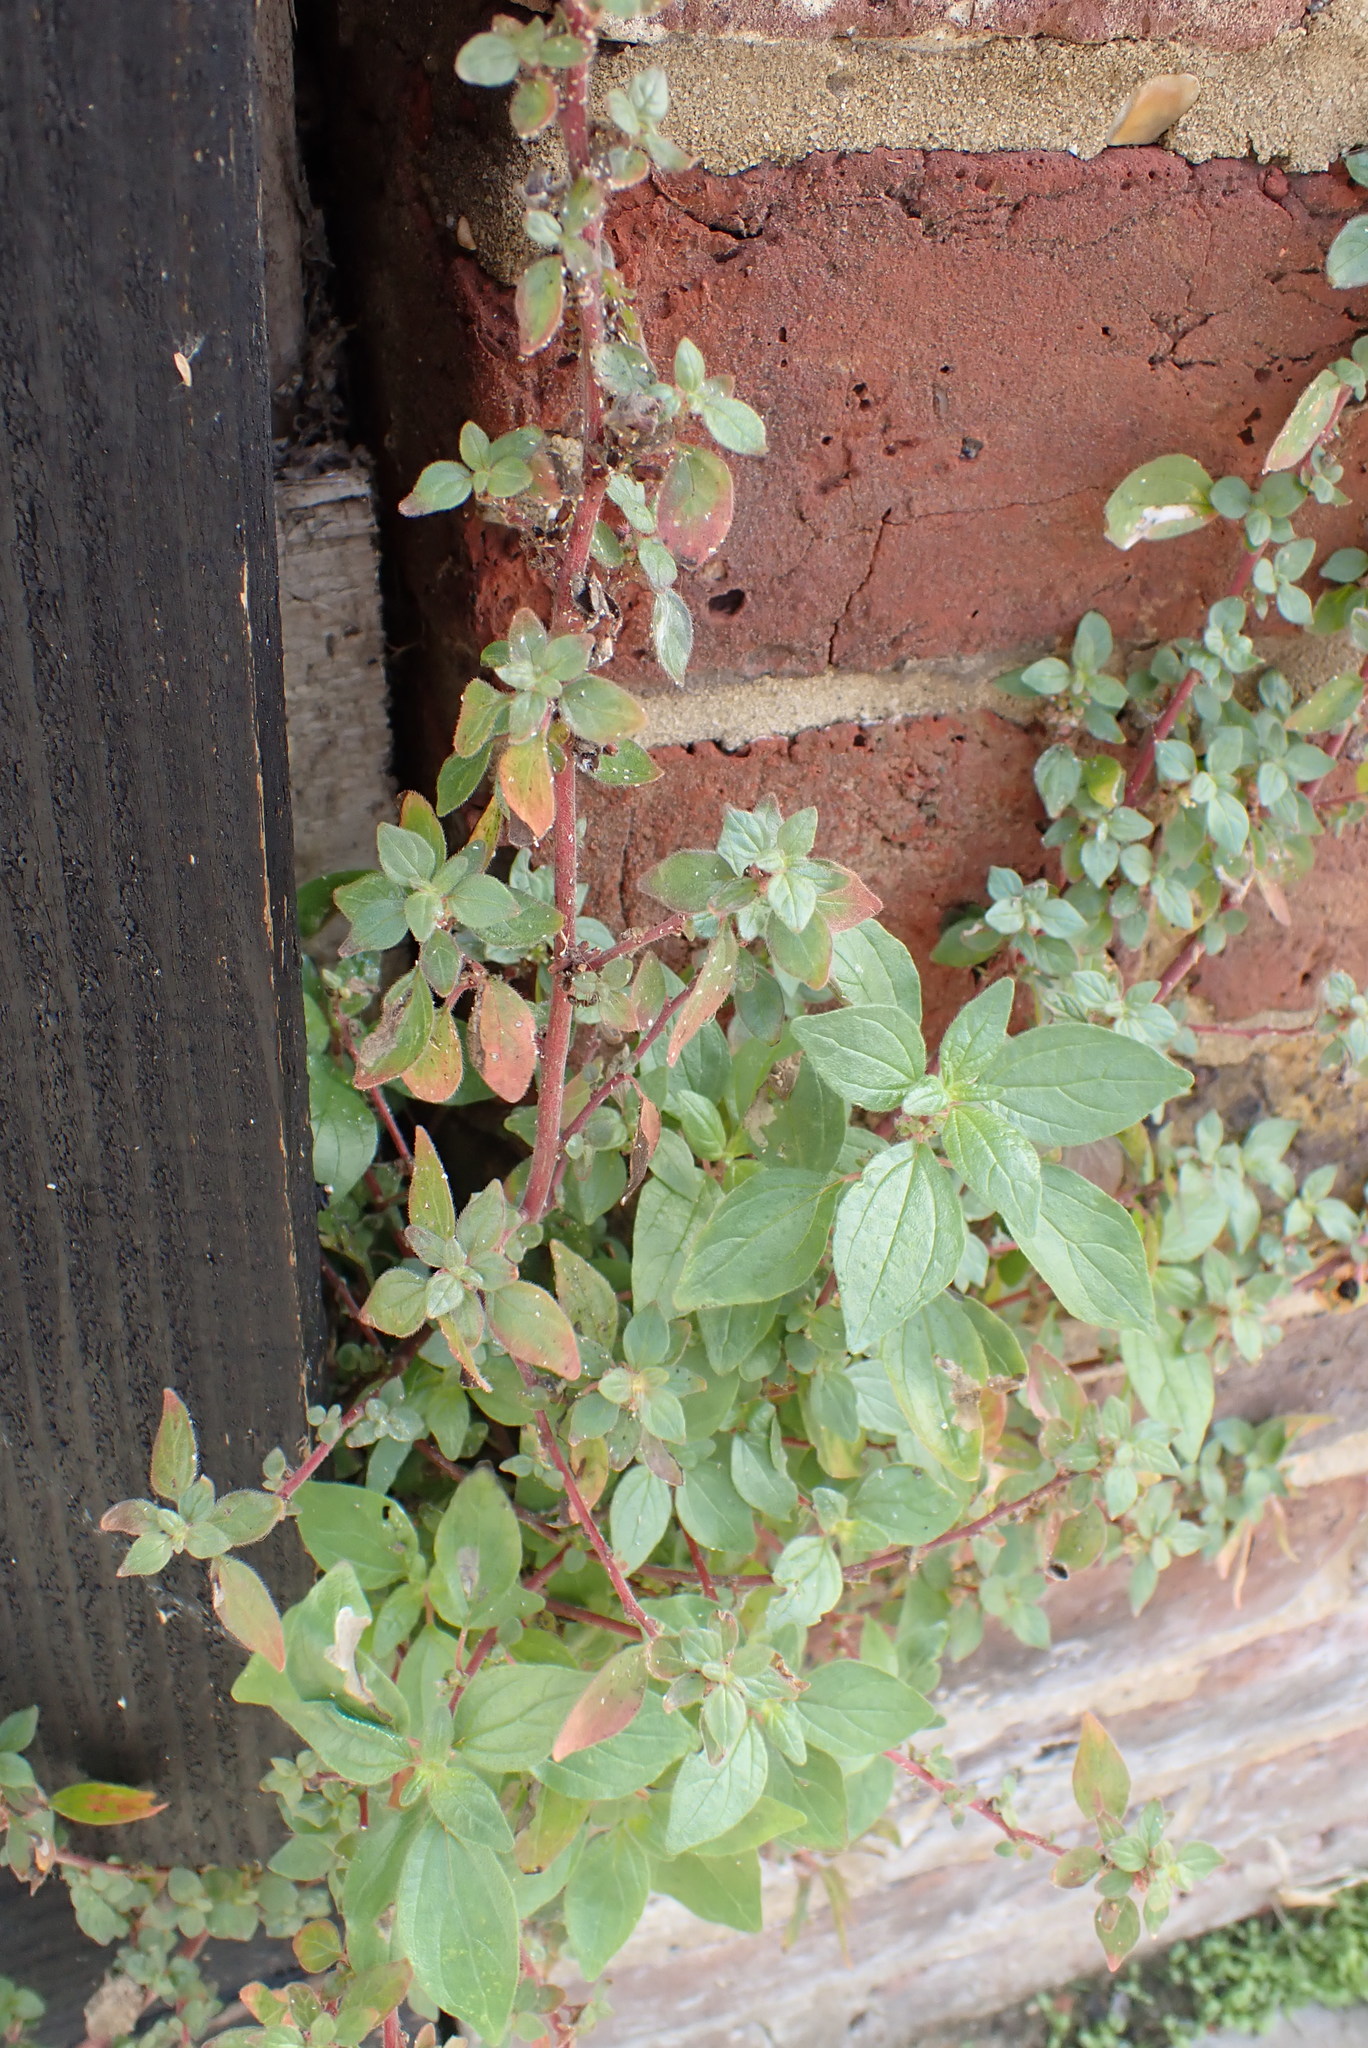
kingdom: Plantae
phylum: Tracheophyta
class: Magnoliopsida
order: Rosales
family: Urticaceae
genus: Parietaria
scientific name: Parietaria judaica
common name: Pellitory-of-the-wall
